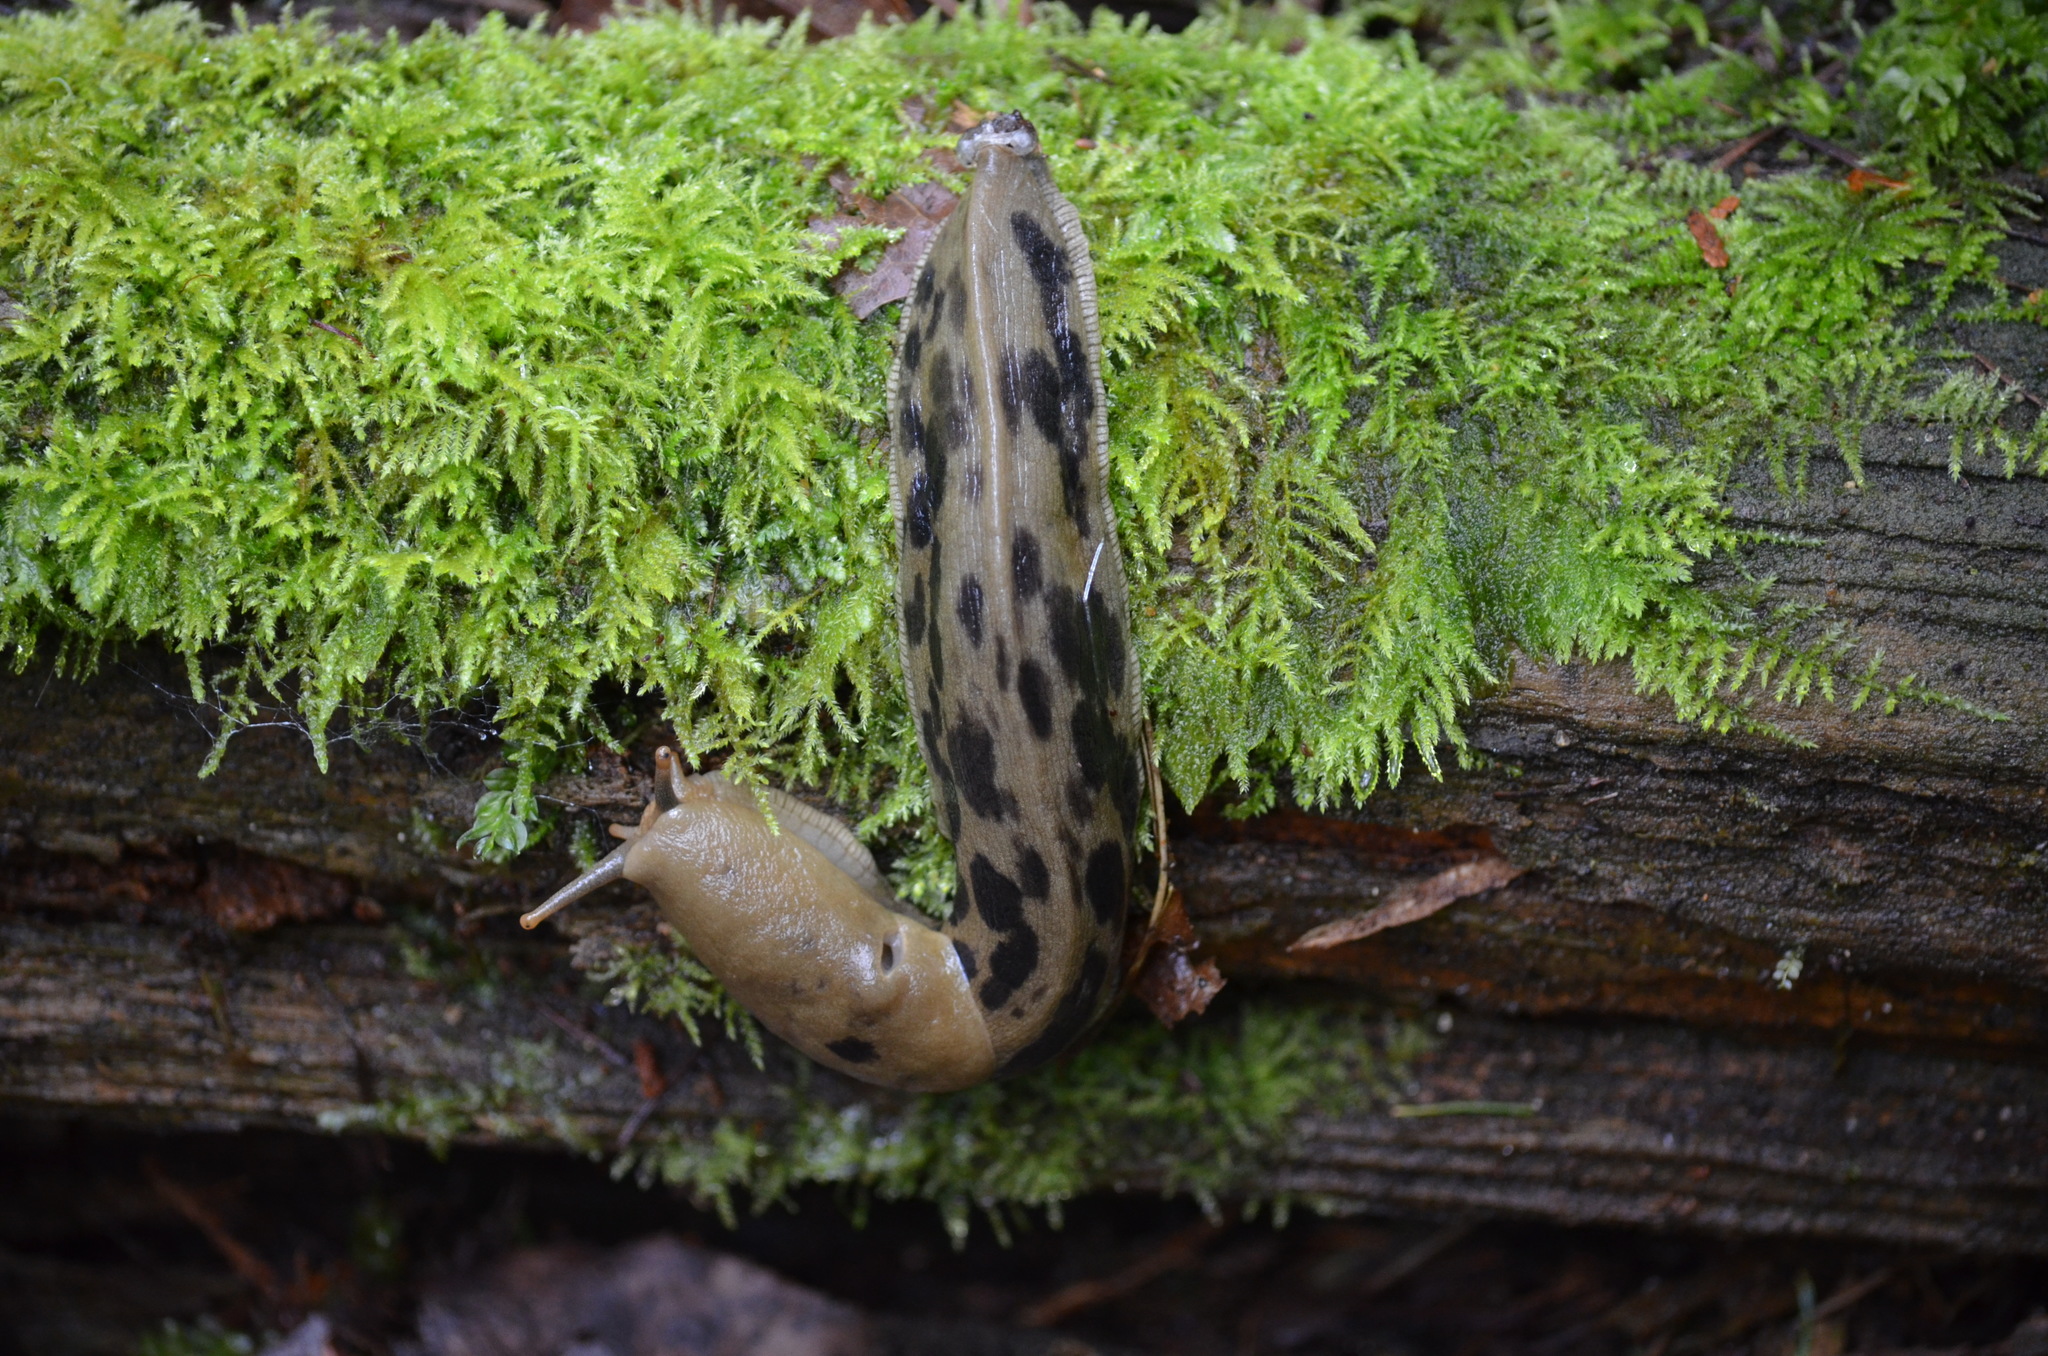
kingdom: Animalia
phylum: Mollusca
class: Gastropoda
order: Stylommatophora
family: Ariolimacidae
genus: Ariolimax
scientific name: Ariolimax columbianus
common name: Pacific banana slug
